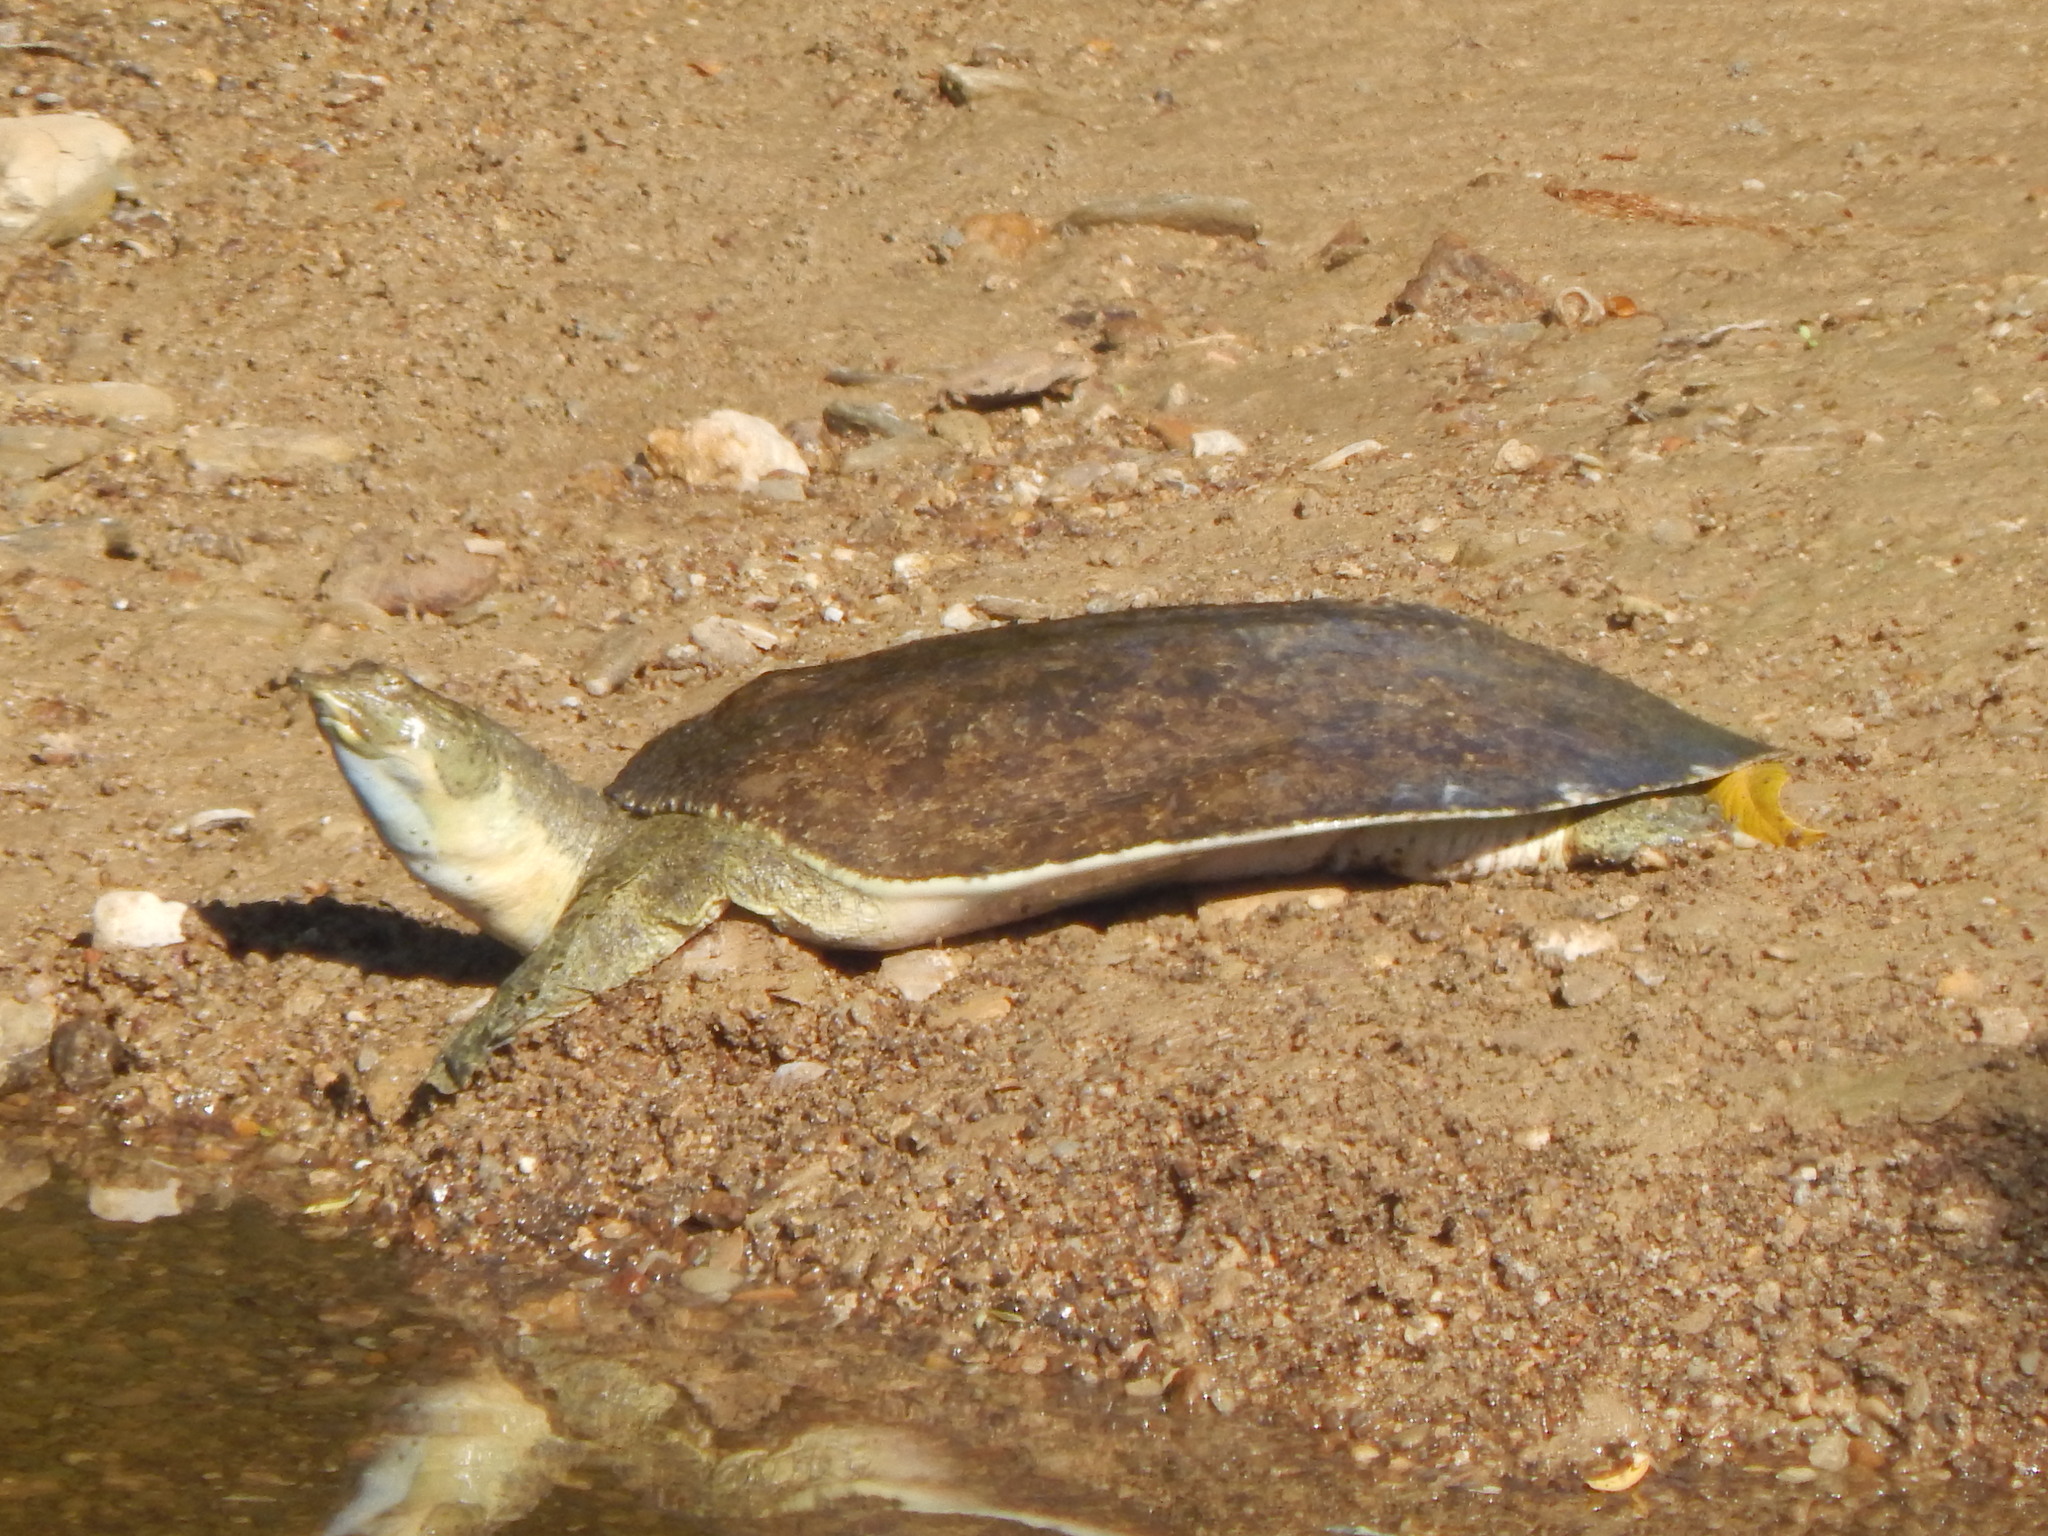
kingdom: Animalia
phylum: Chordata
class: Testudines
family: Trionychidae
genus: Apalone
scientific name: Apalone spinifera
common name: Spiny softshell turtle
